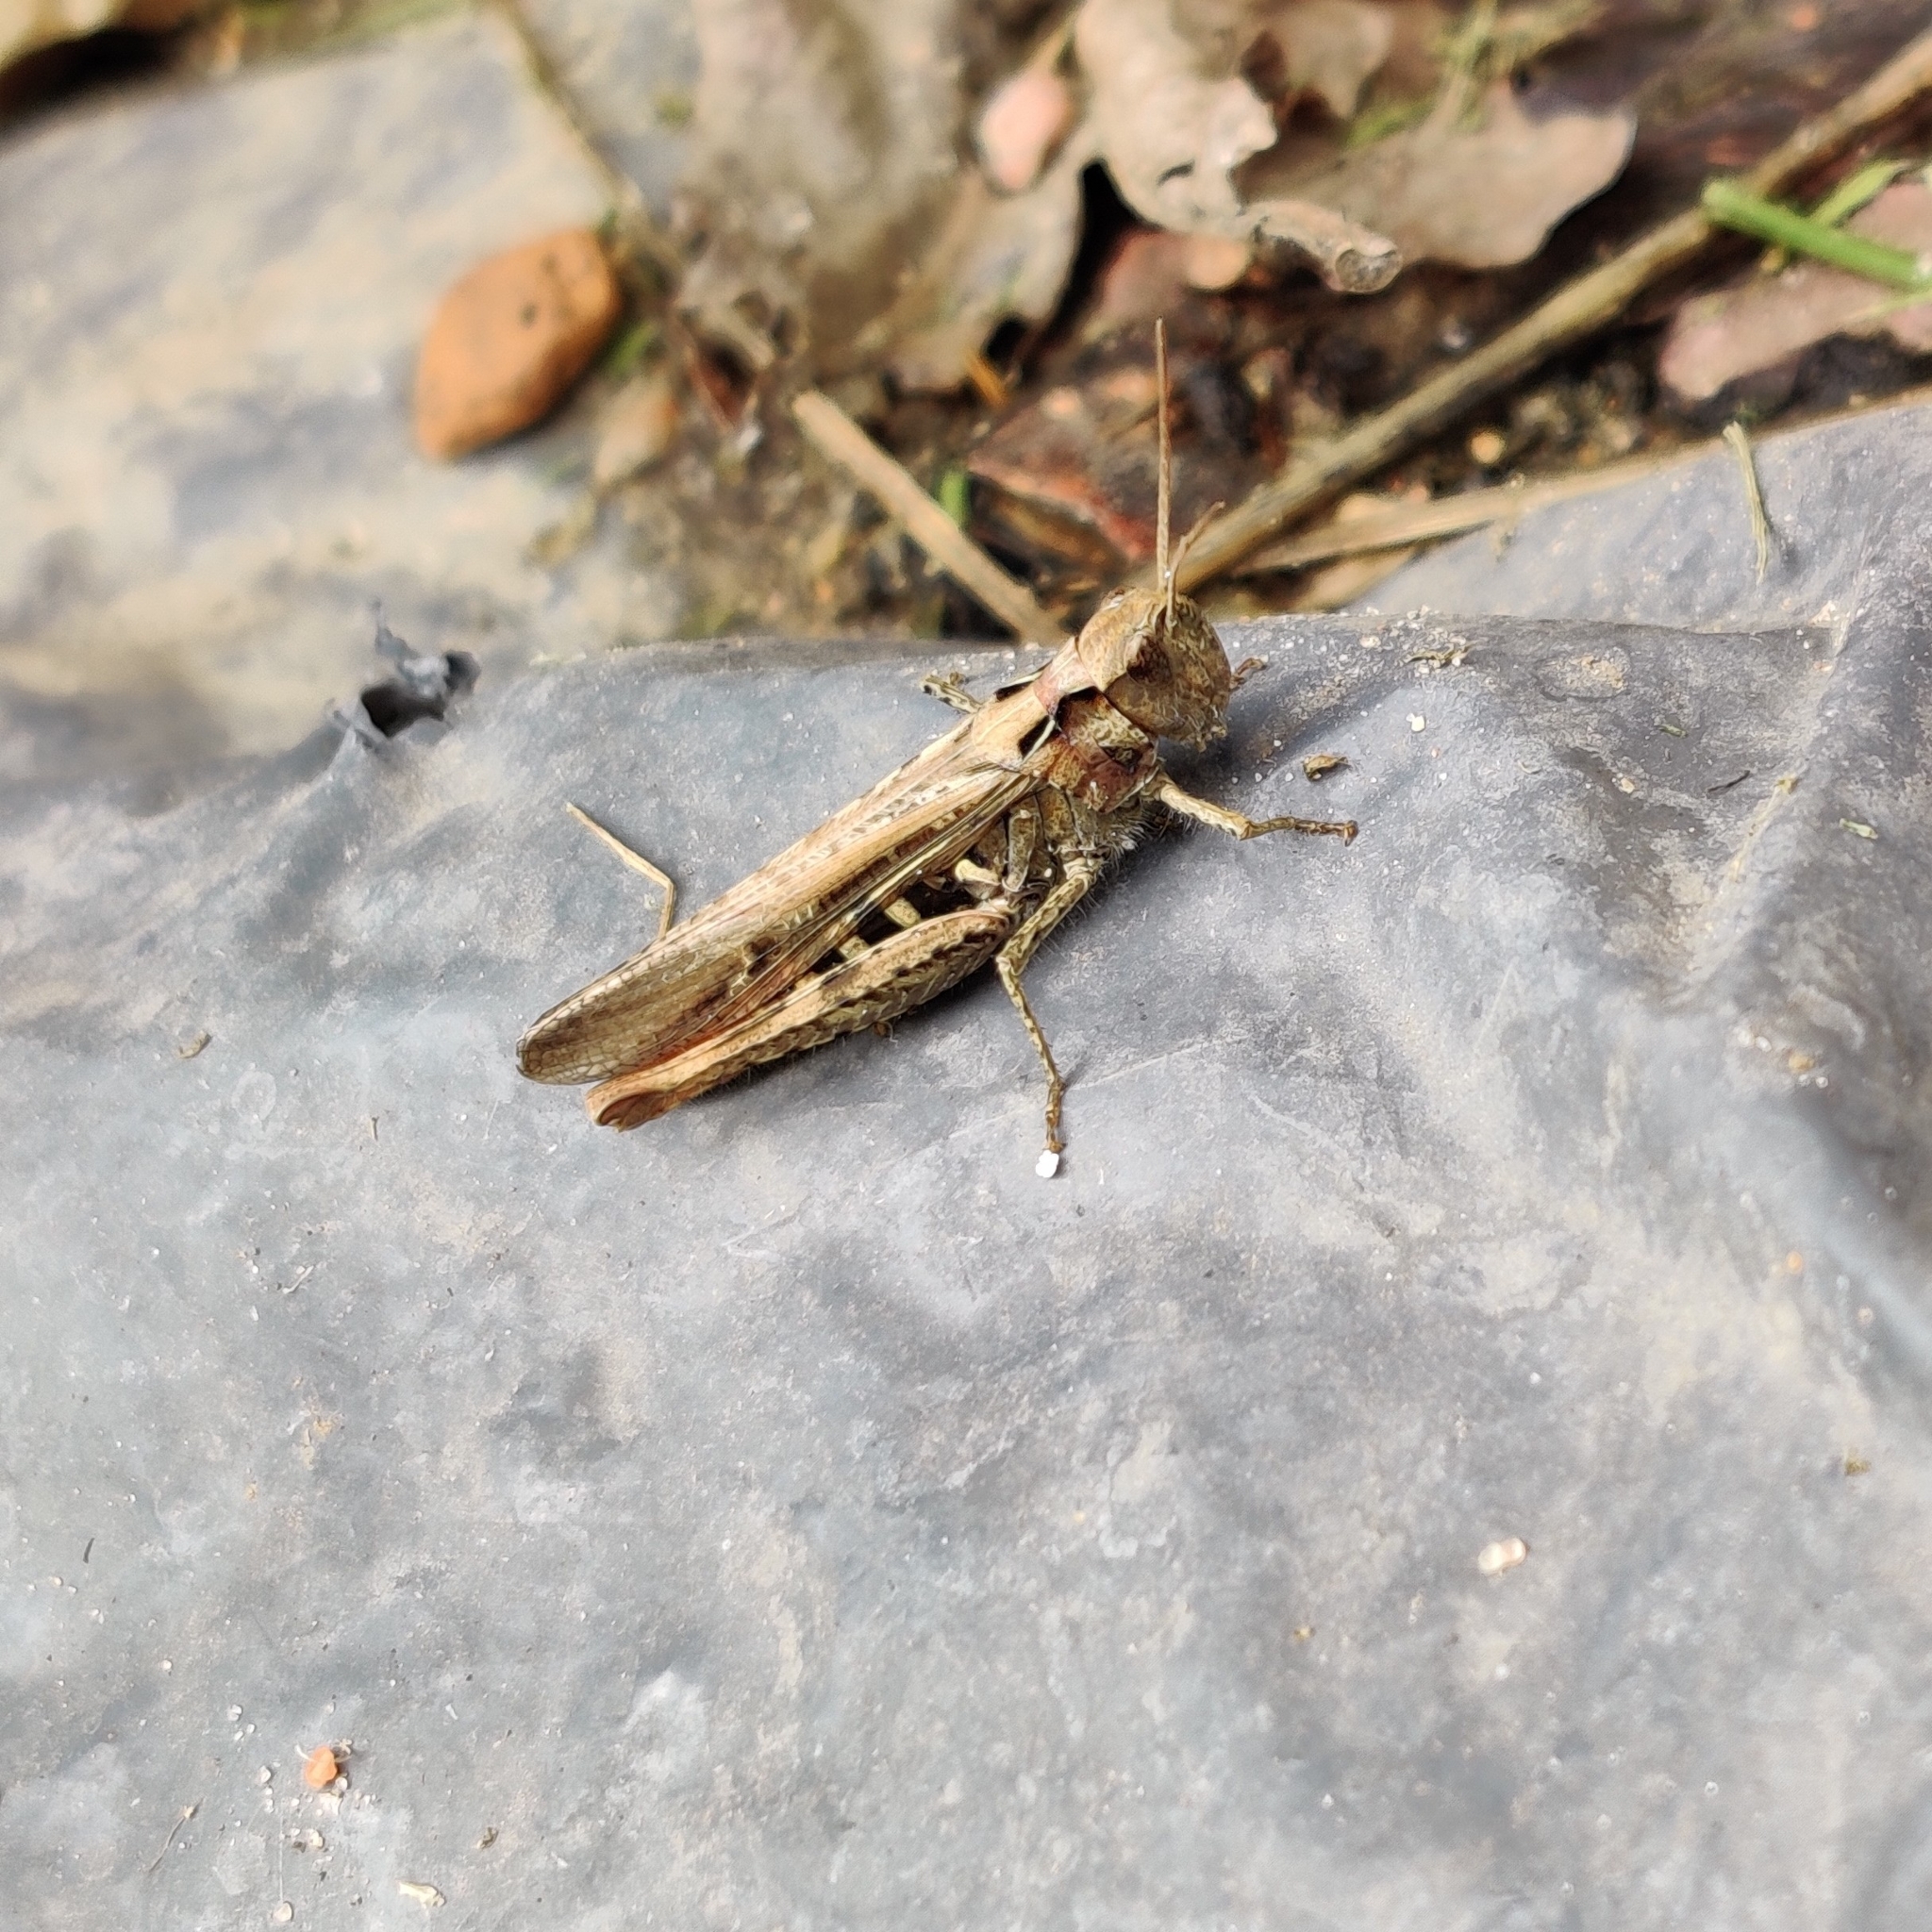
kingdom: Animalia
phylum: Arthropoda
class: Insecta
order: Orthoptera
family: Acrididae
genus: Glyptobothrus
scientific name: Glyptobothrus
